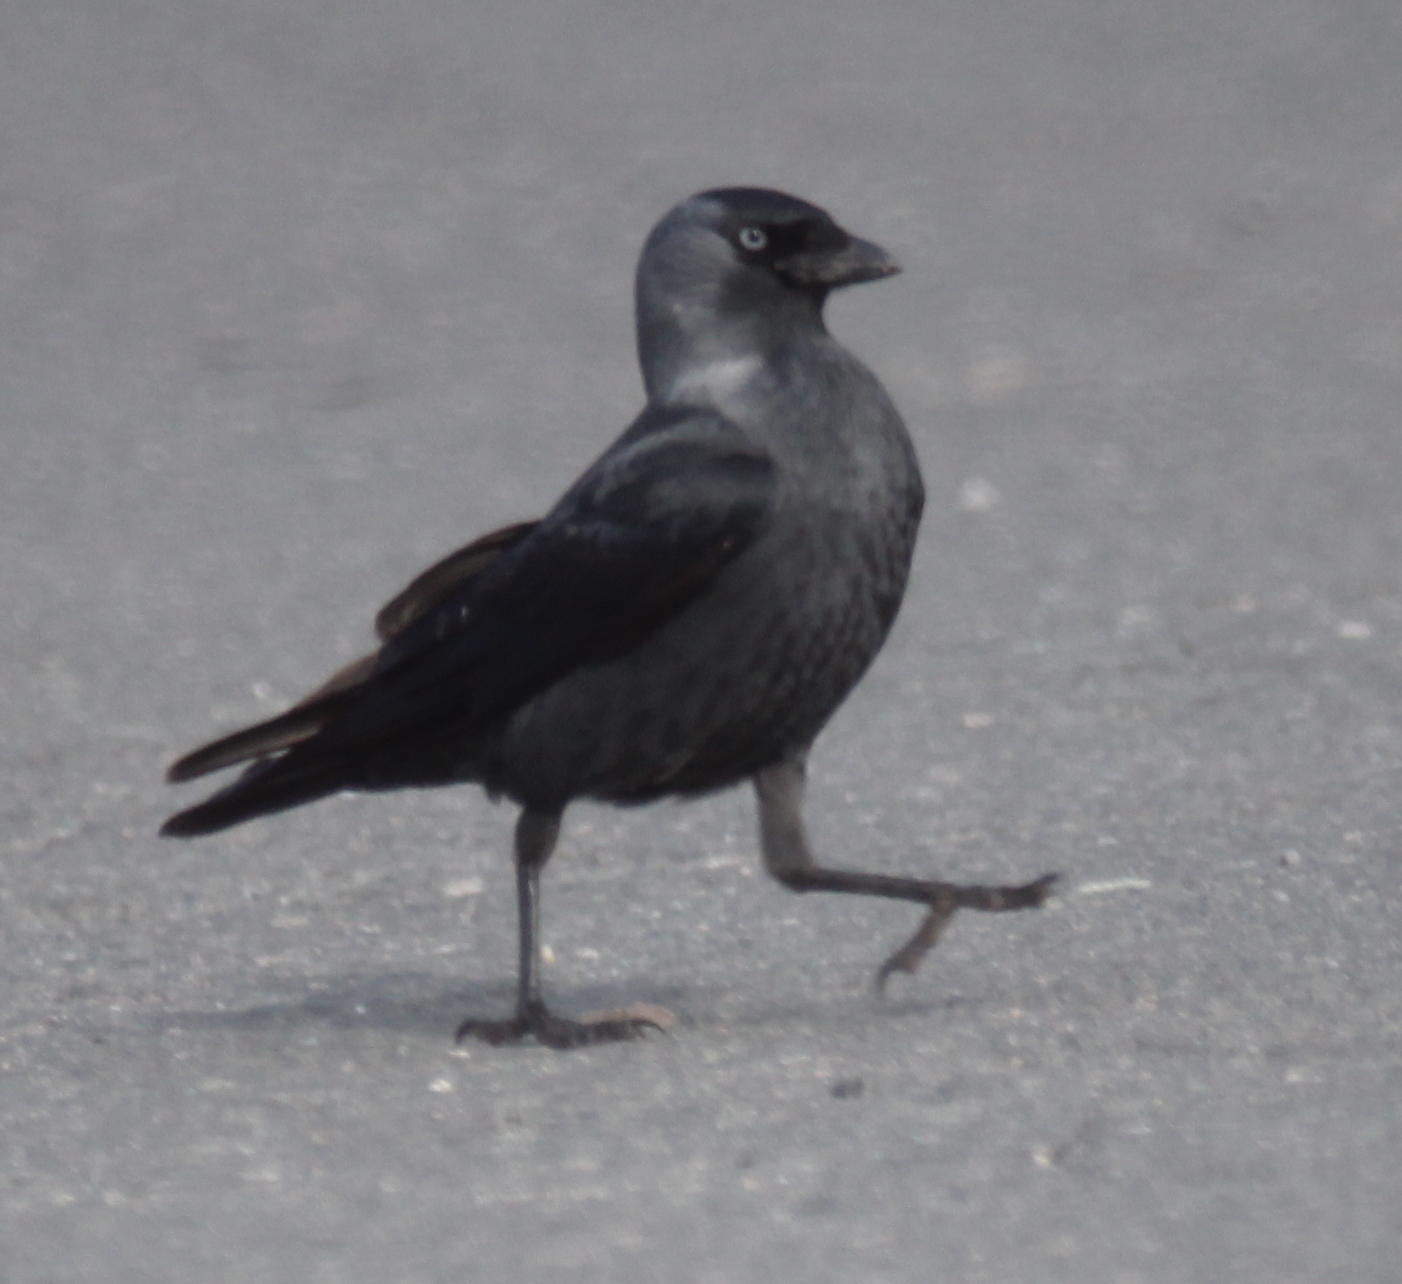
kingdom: Animalia
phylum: Chordata
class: Aves
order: Passeriformes
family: Corvidae
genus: Coloeus
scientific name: Coloeus monedula
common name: Western jackdaw
